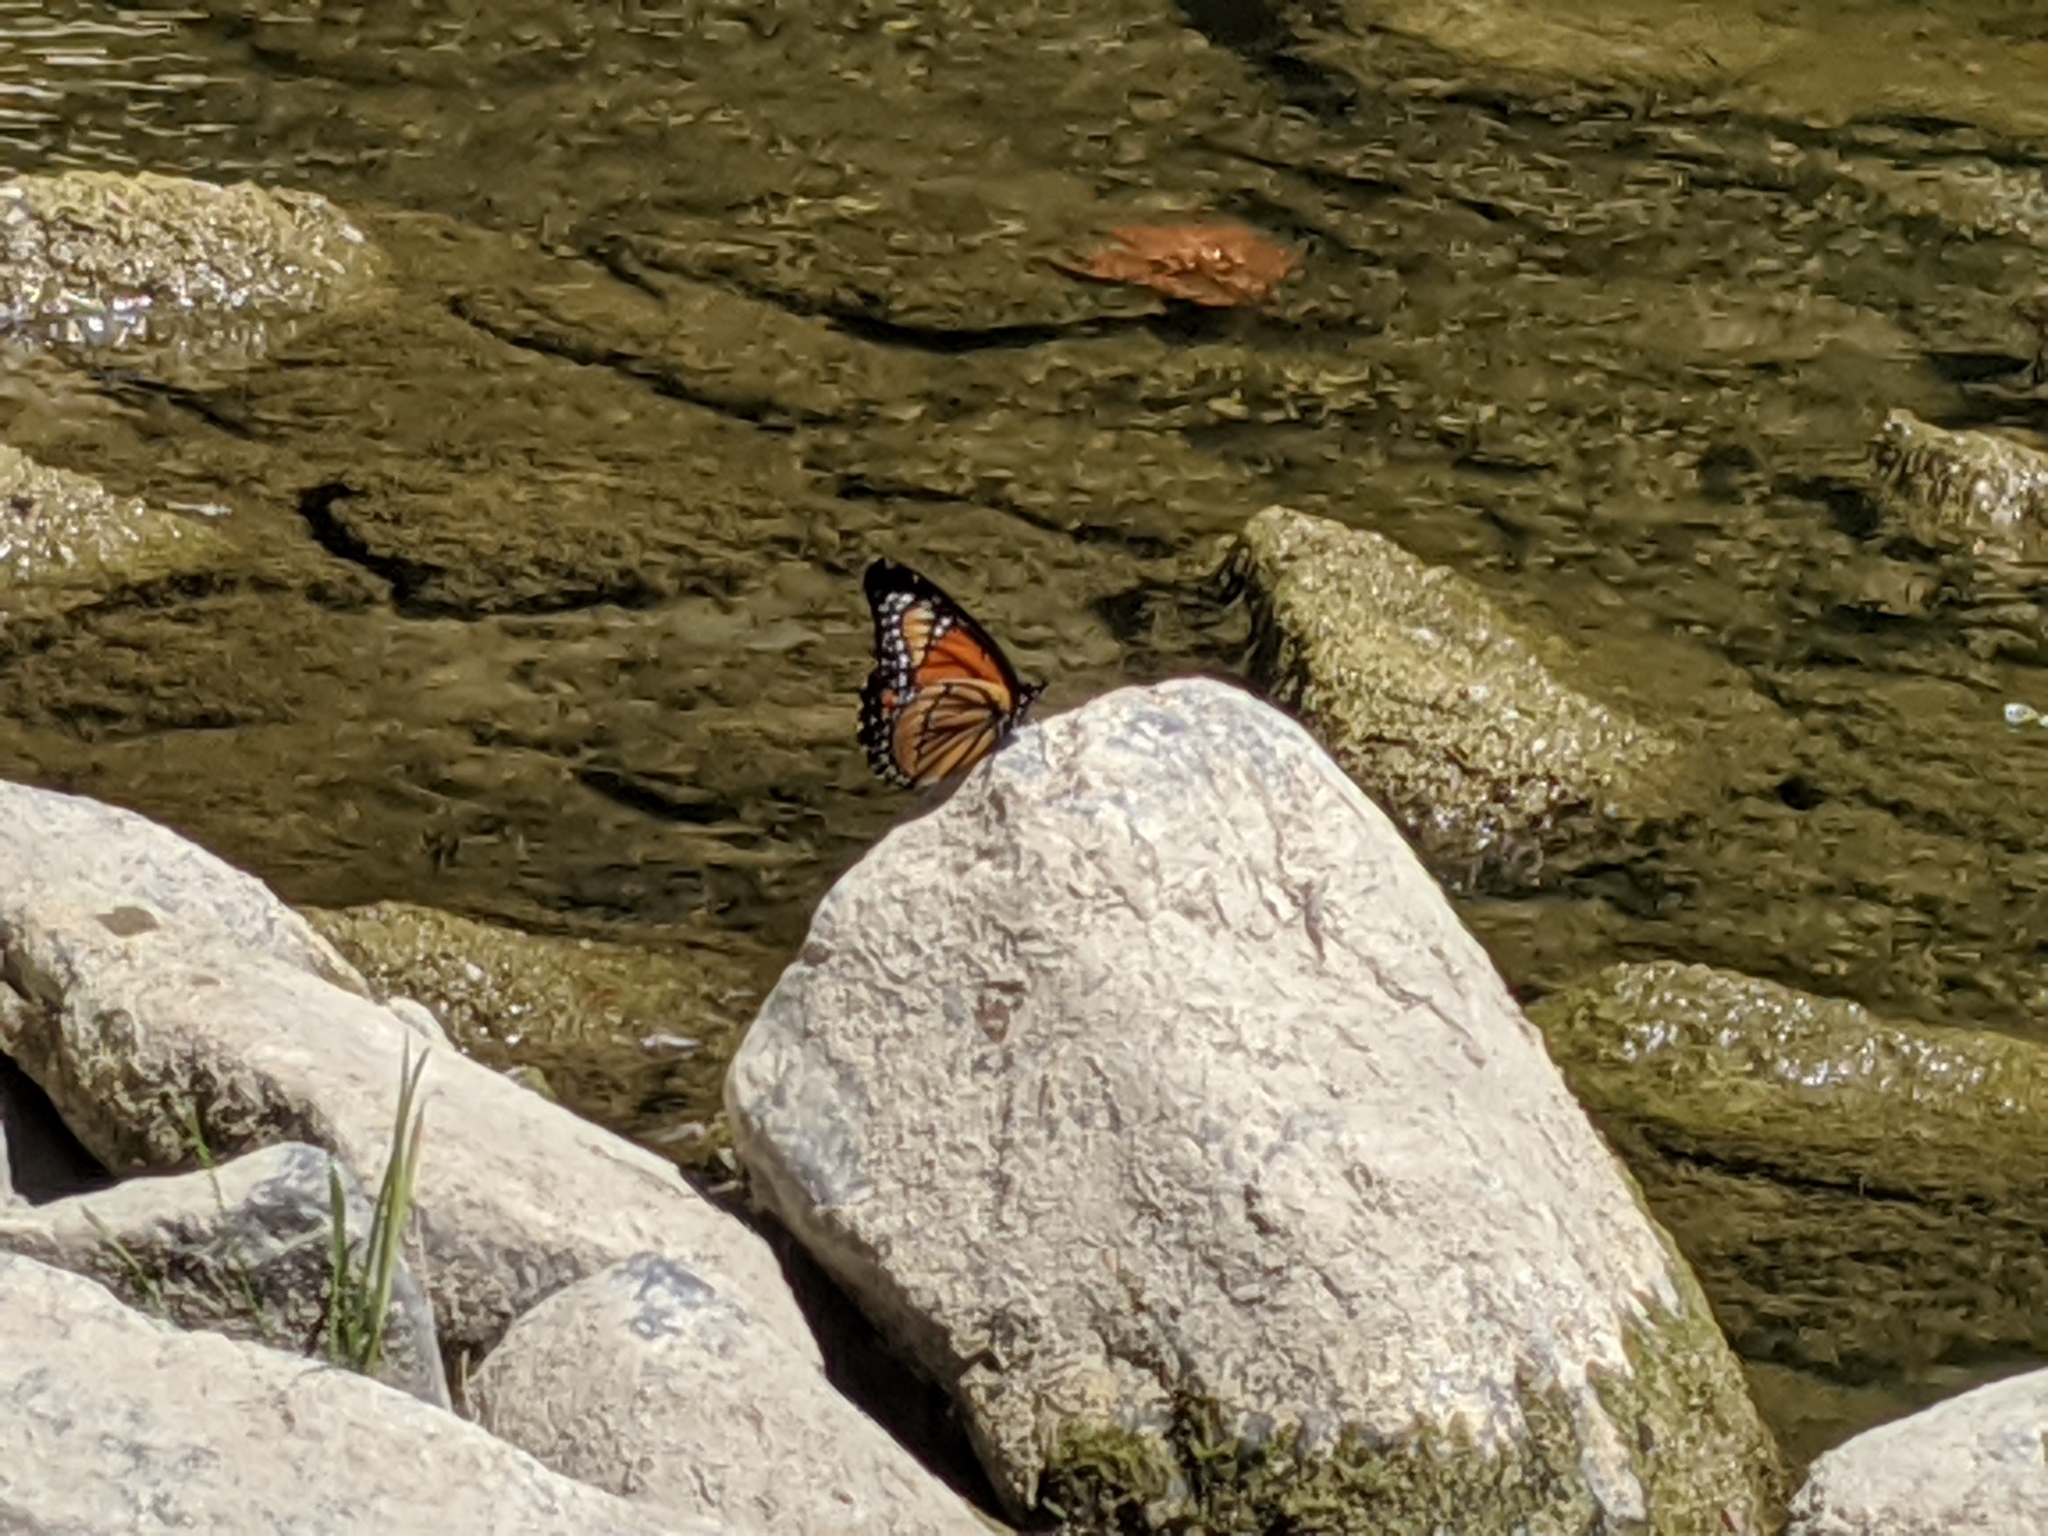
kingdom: Animalia
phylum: Arthropoda
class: Insecta
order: Lepidoptera
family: Nymphalidae
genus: Limenitis
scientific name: Limenitis archippus
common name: Viceroy
